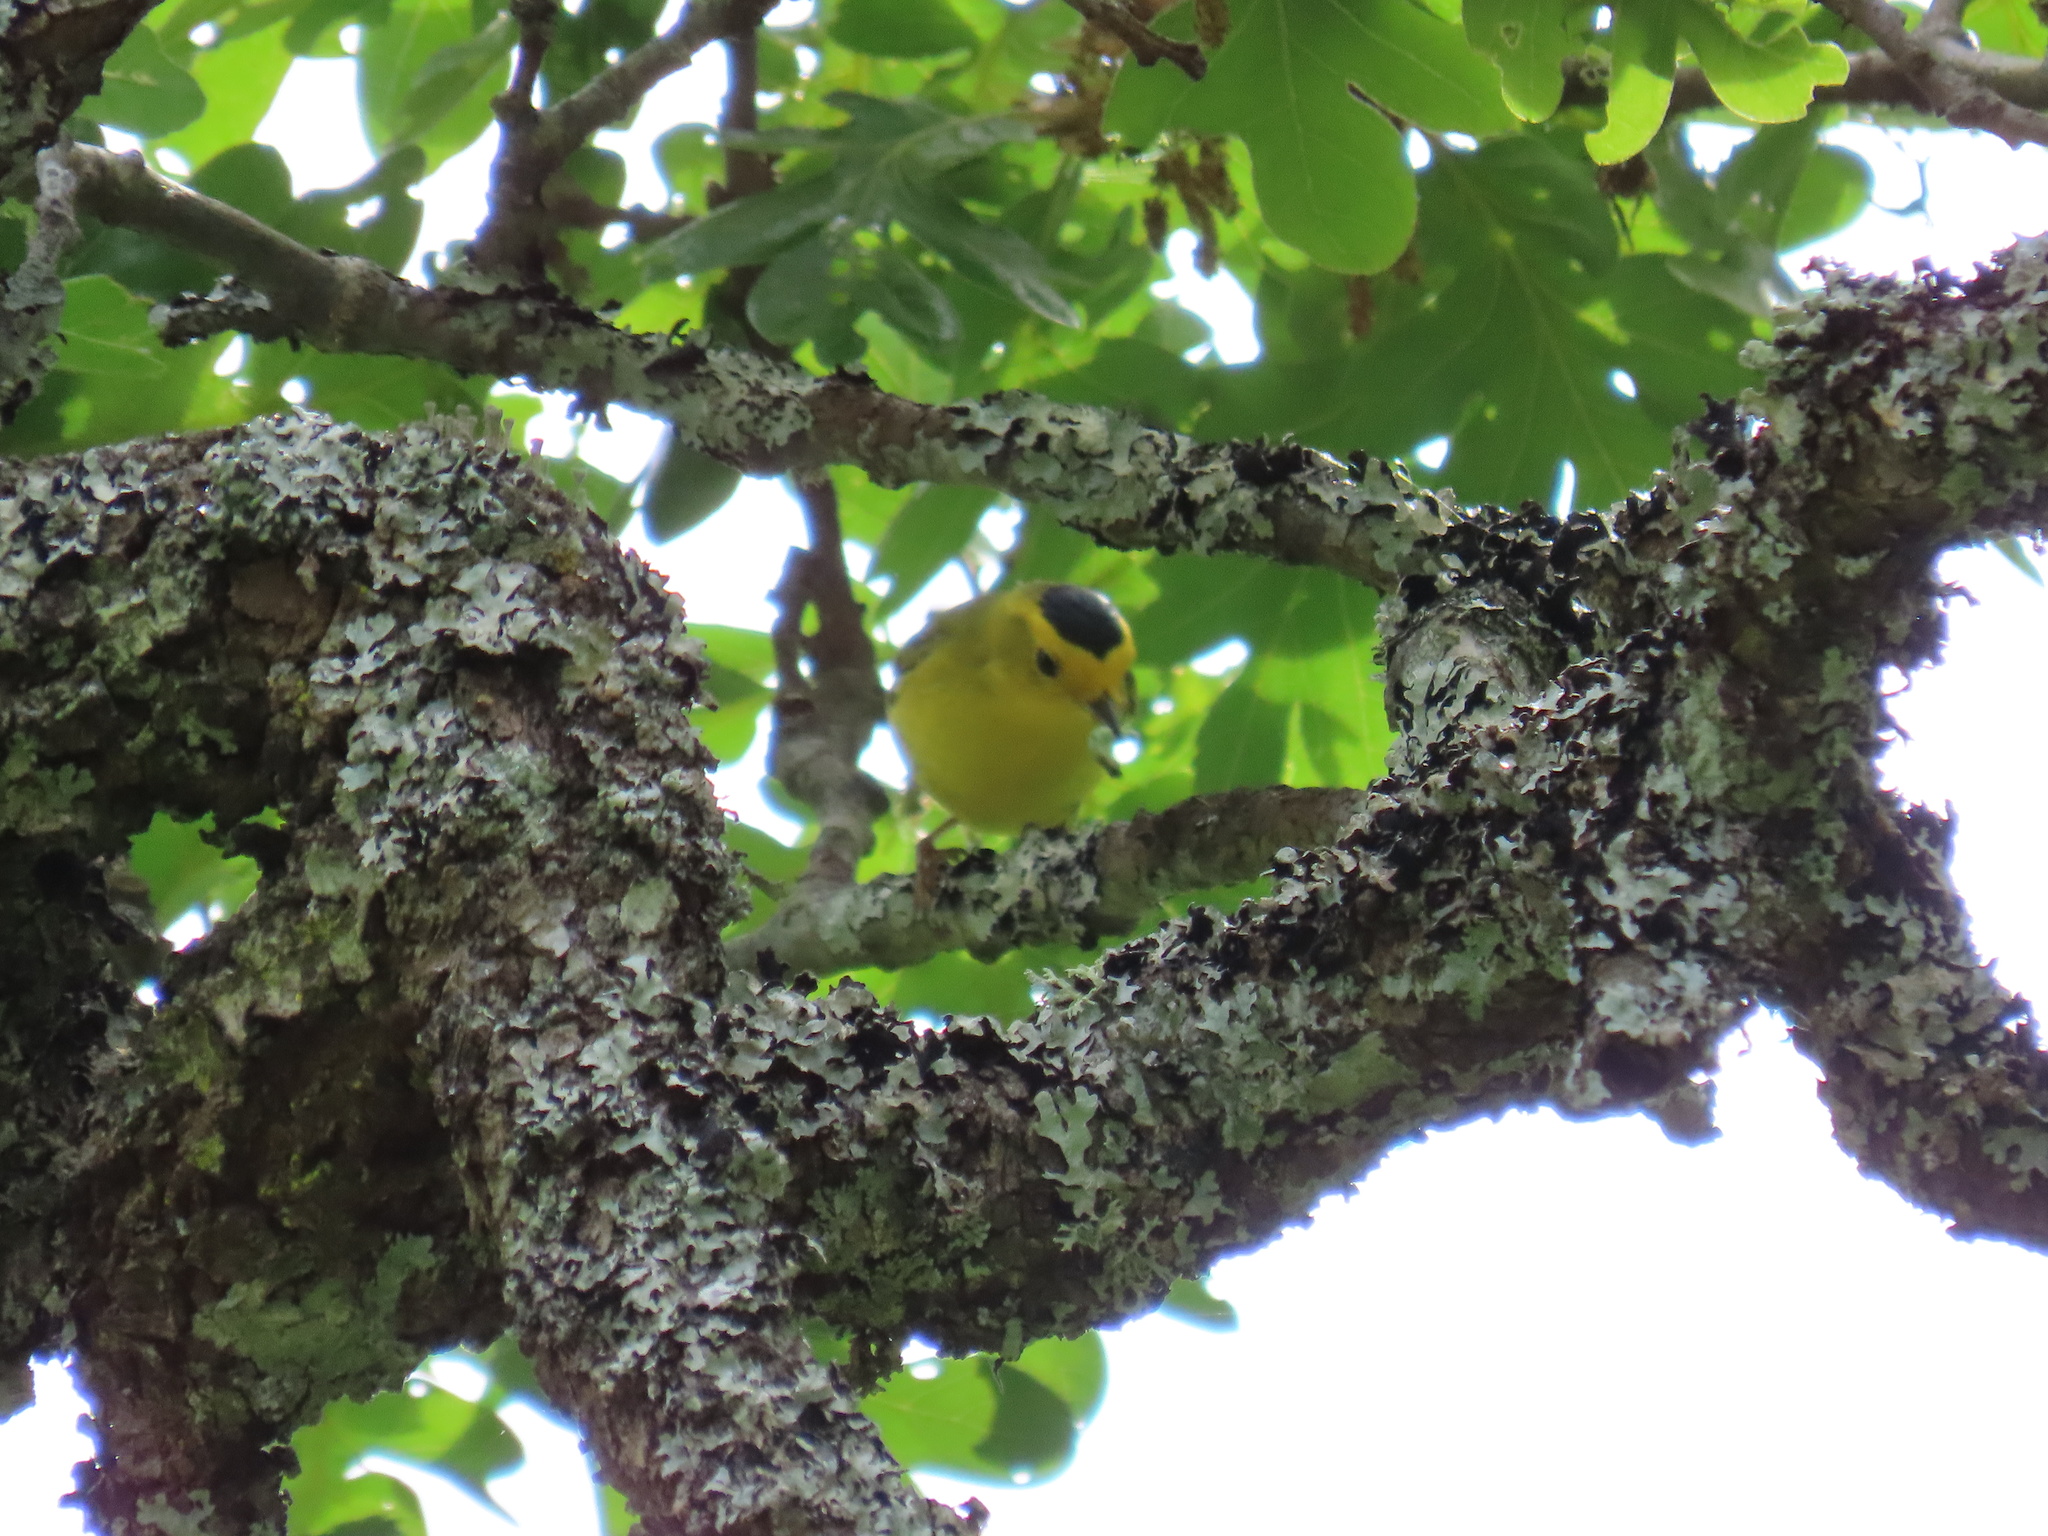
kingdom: Animalia
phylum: Chordata
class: Aves
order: Passeriformes
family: Parulidae
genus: Cardellina
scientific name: Cardellina pusilla
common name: Wilson's warbler
